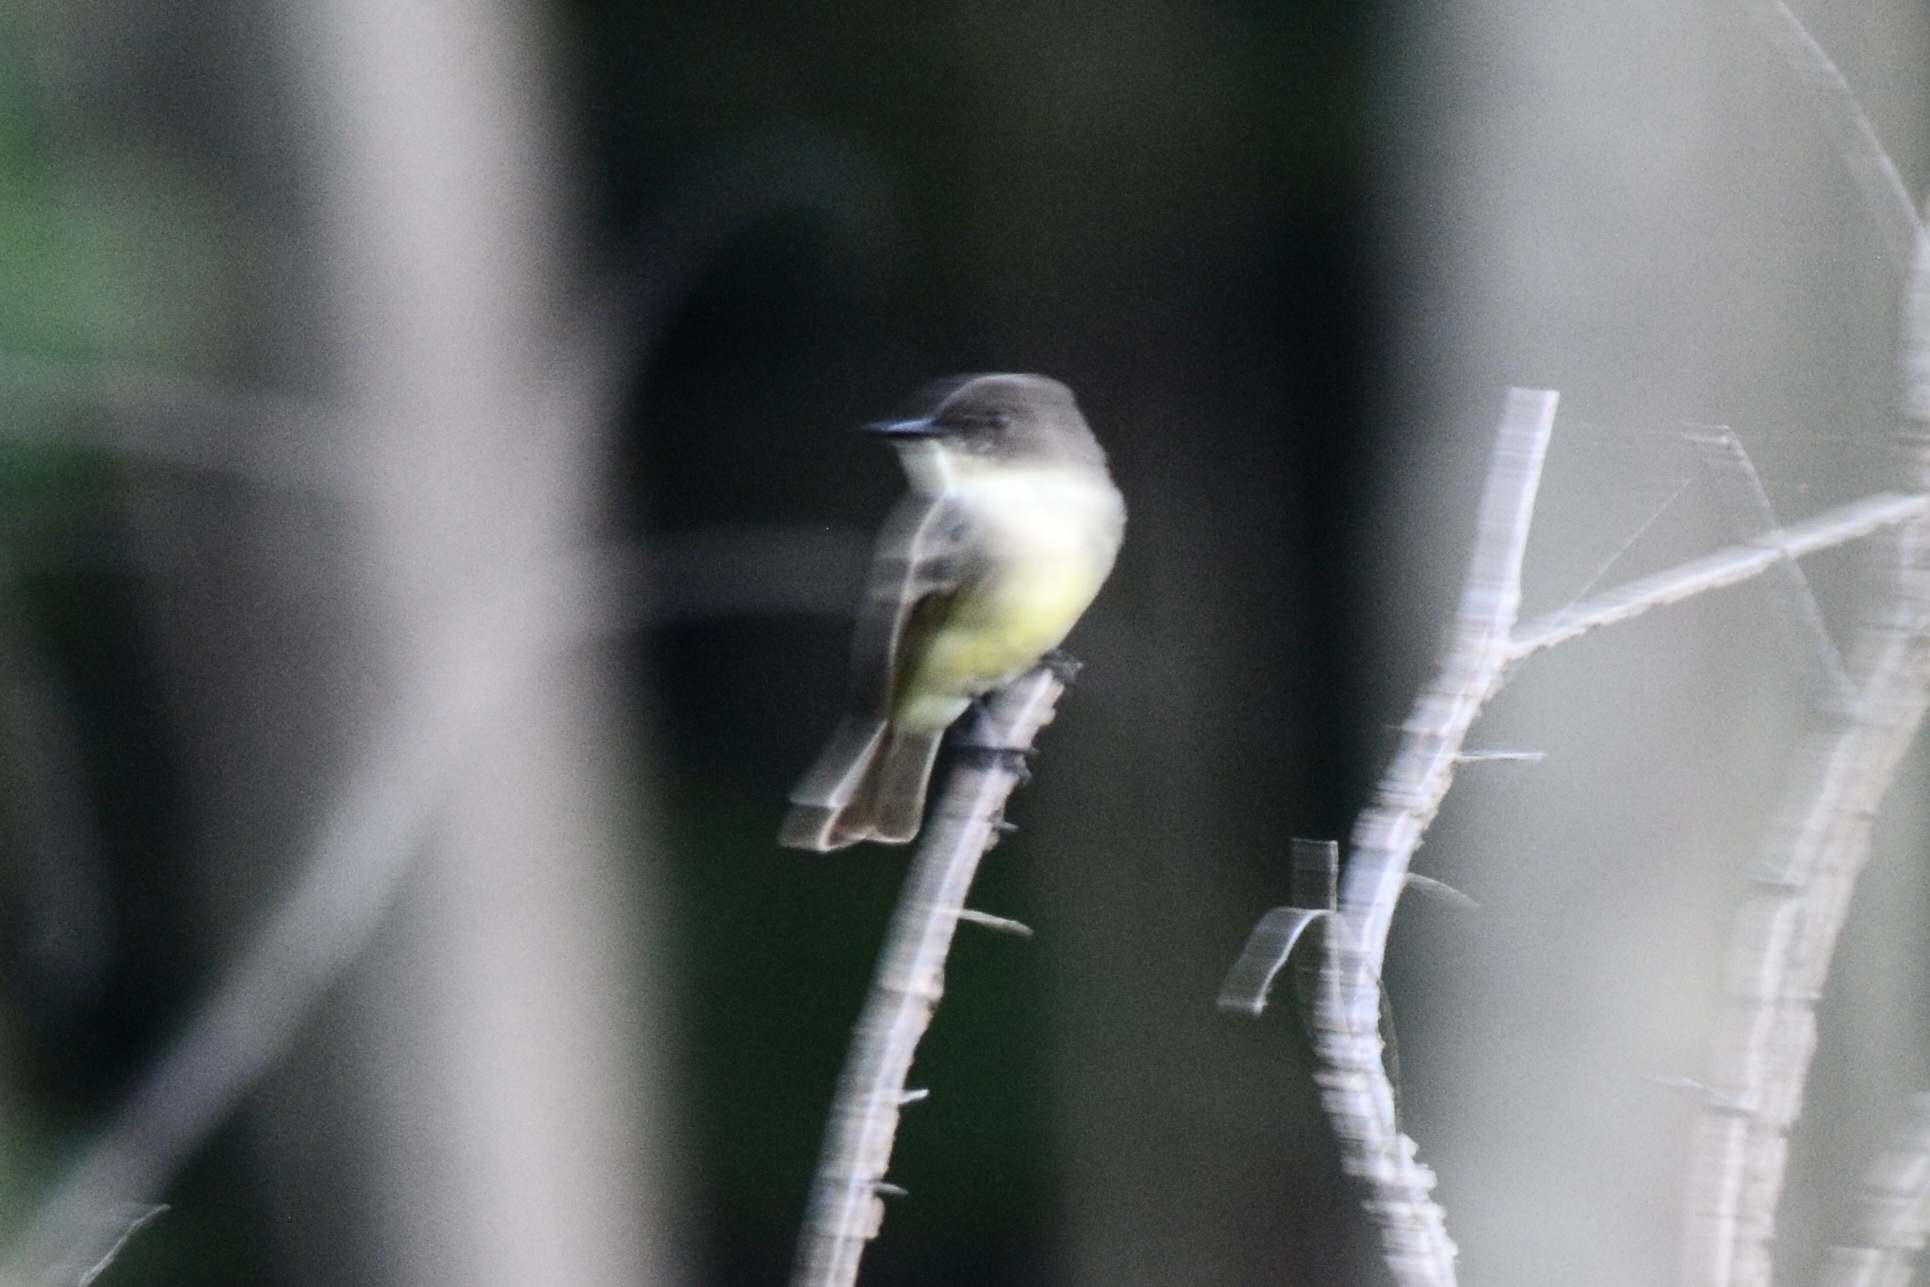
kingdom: Animalia
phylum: Chordata
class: Aves
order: Passeriformes
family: Tyrannidae
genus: Sayornis
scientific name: Sayornis phoebe
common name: Eastern phoebe
